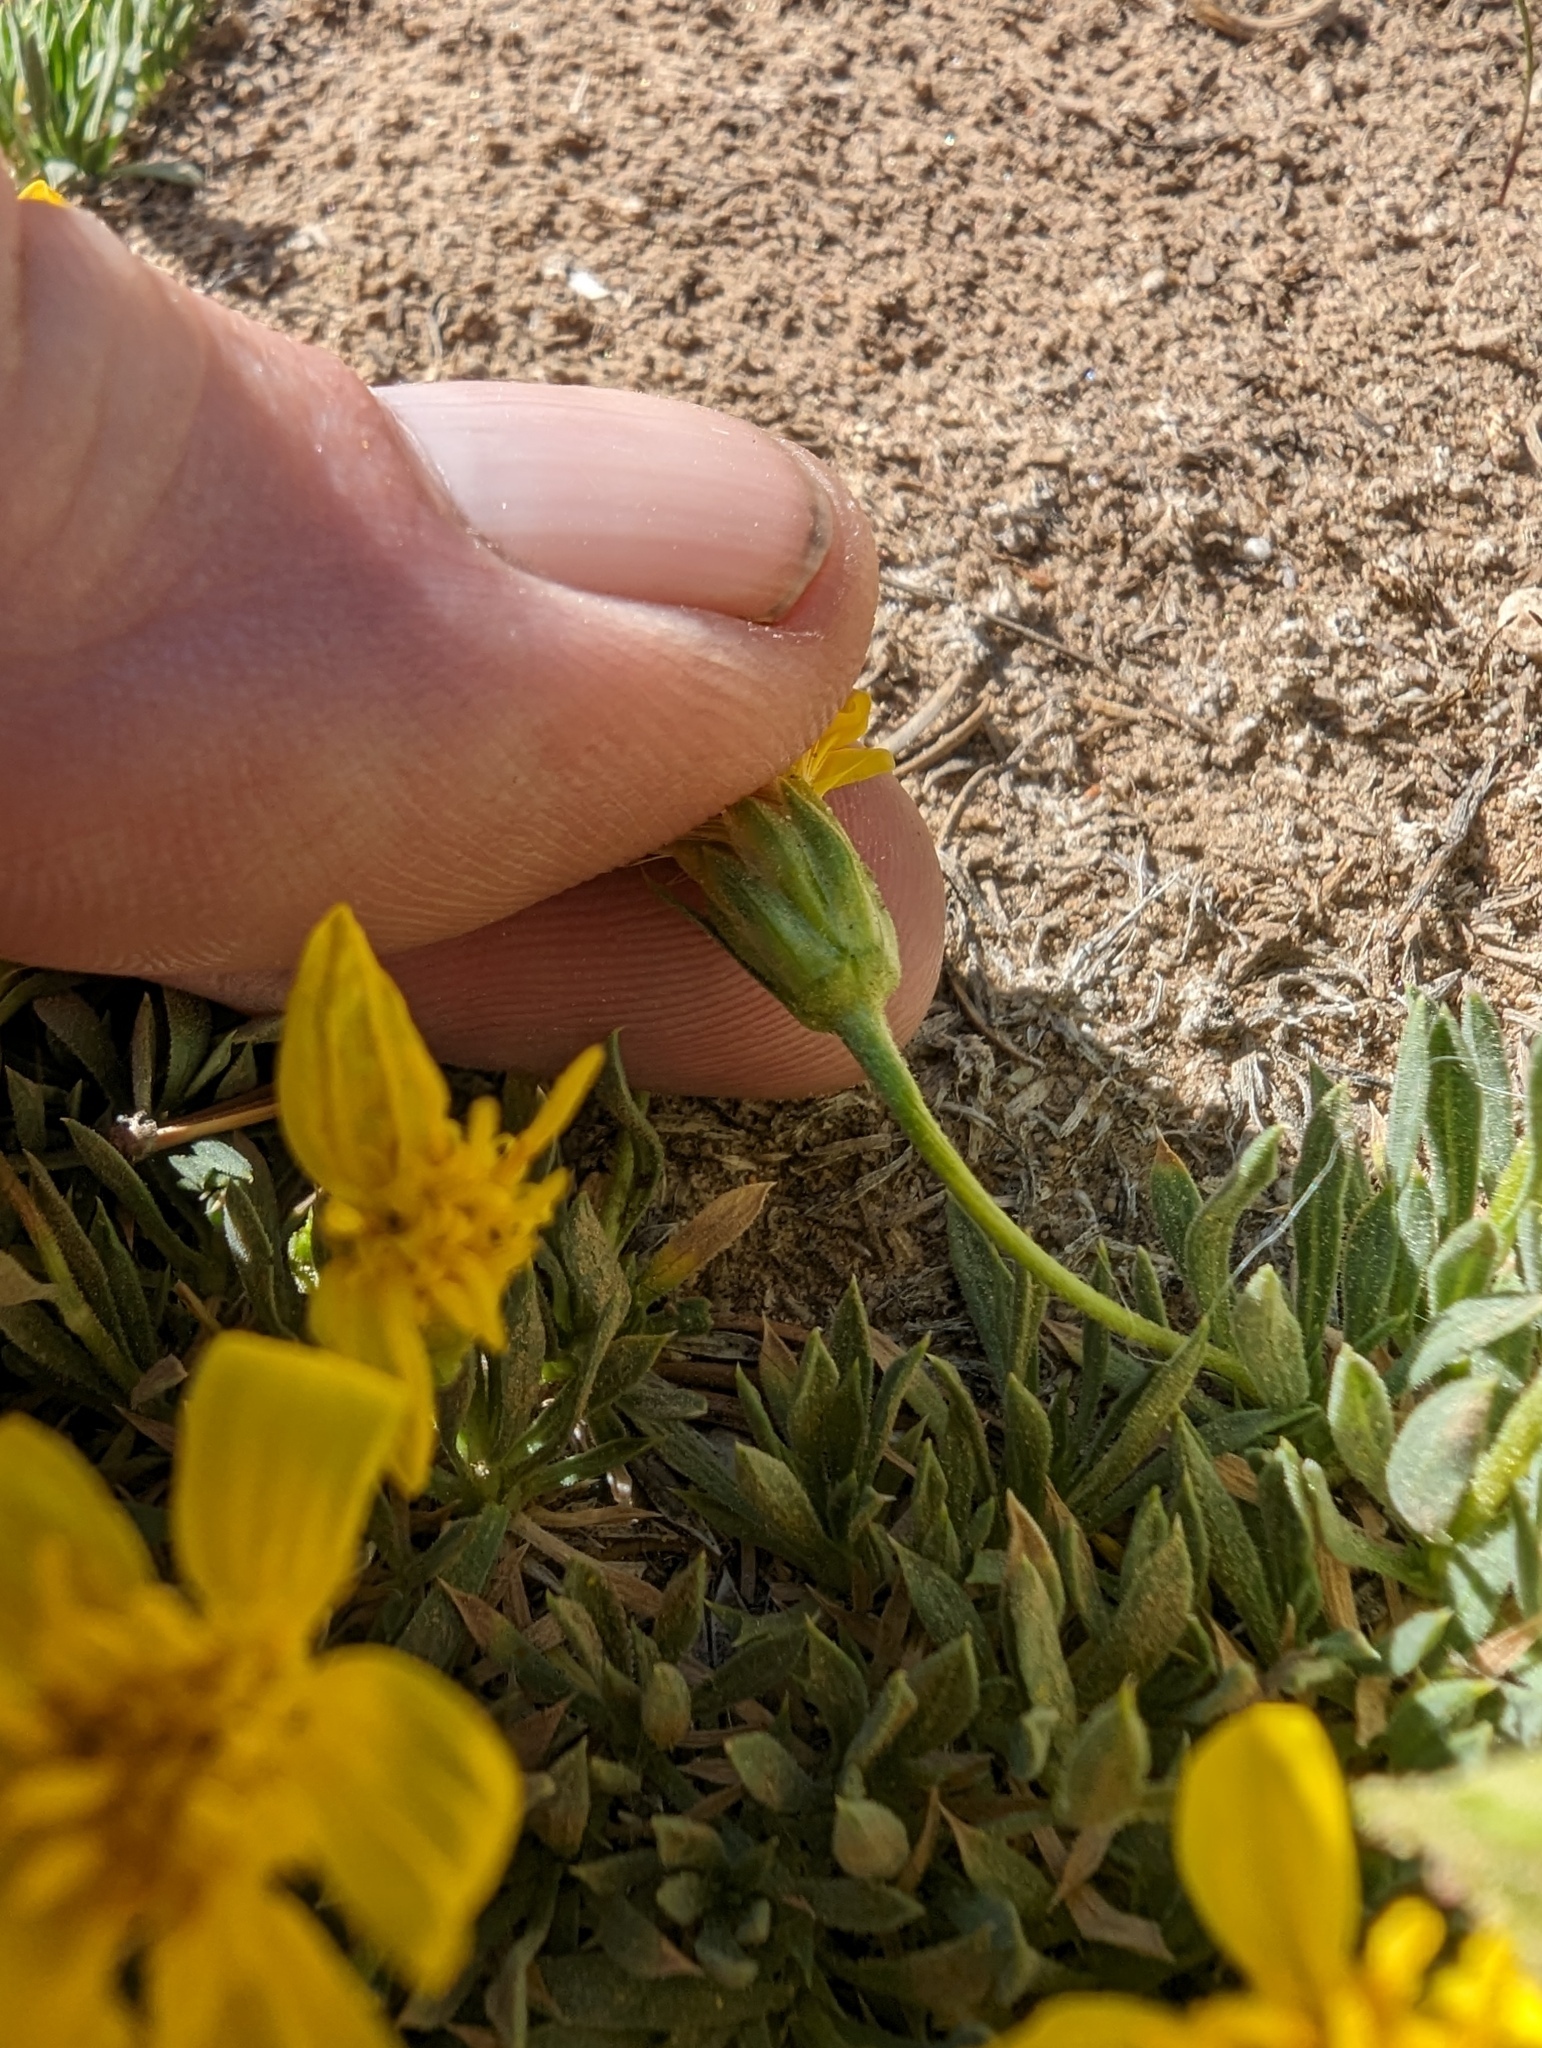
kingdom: Plantae
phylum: Tracheophyta
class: Magnoliopsida
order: Asterales
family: Asteraceae
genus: Stenotus
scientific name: Stenotus acaulis
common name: Stemless goldenweed
